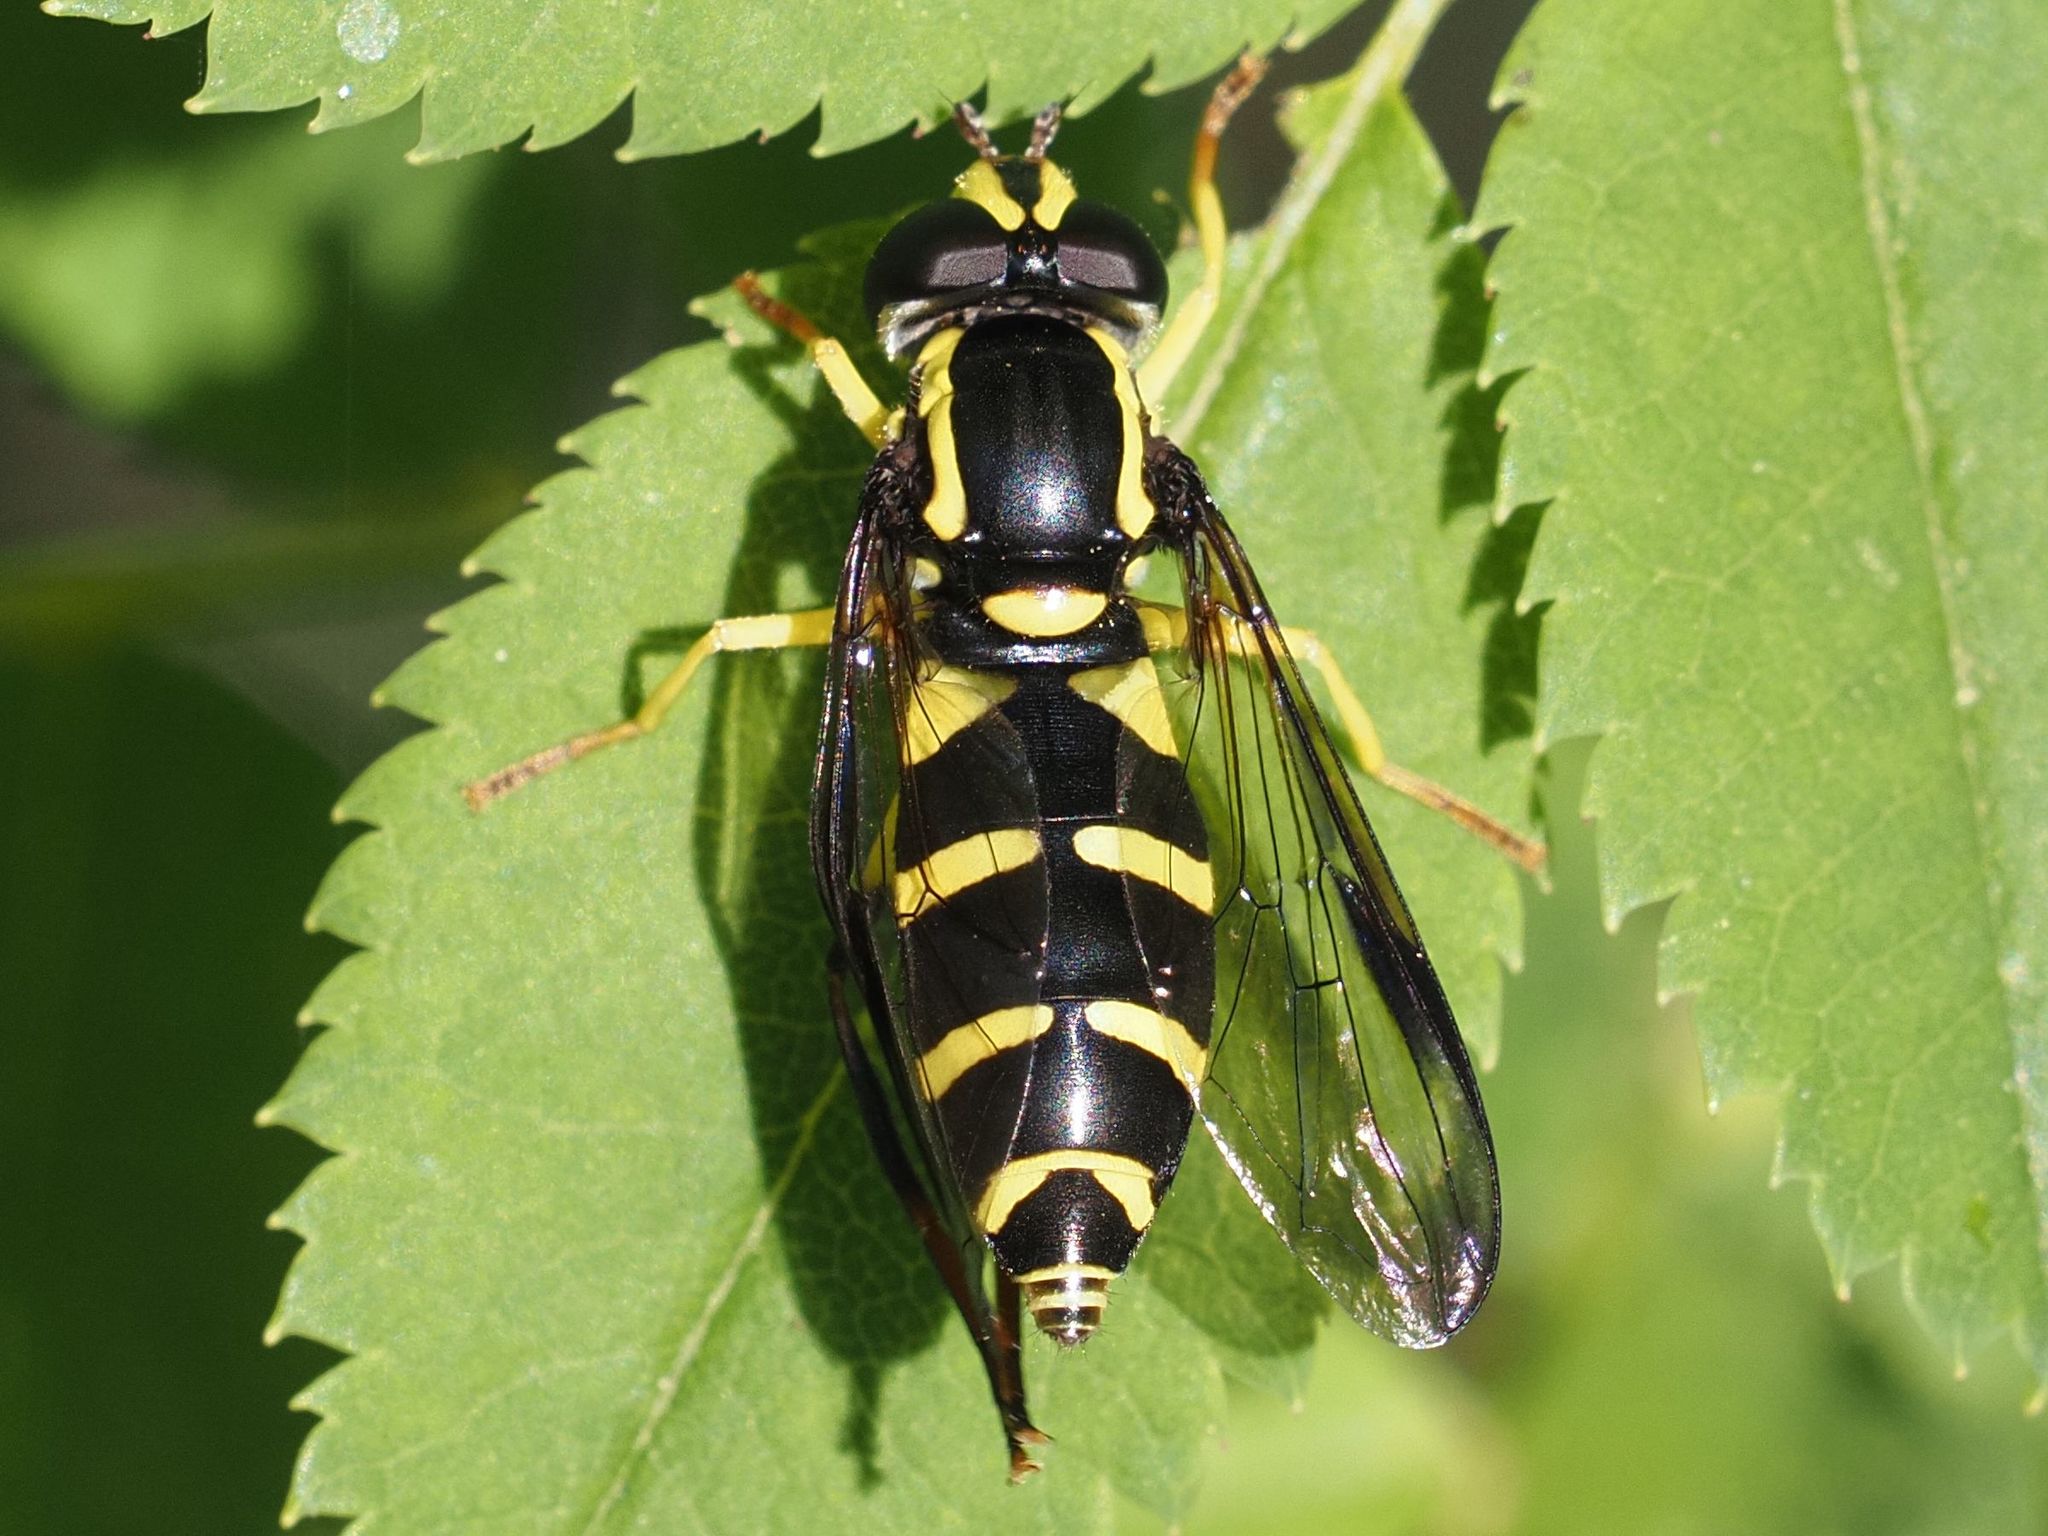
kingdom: Animalia
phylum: Arthropoda
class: Insecta
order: Diptera
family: Syrphidae
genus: Philhelius
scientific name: Philhelius dives
